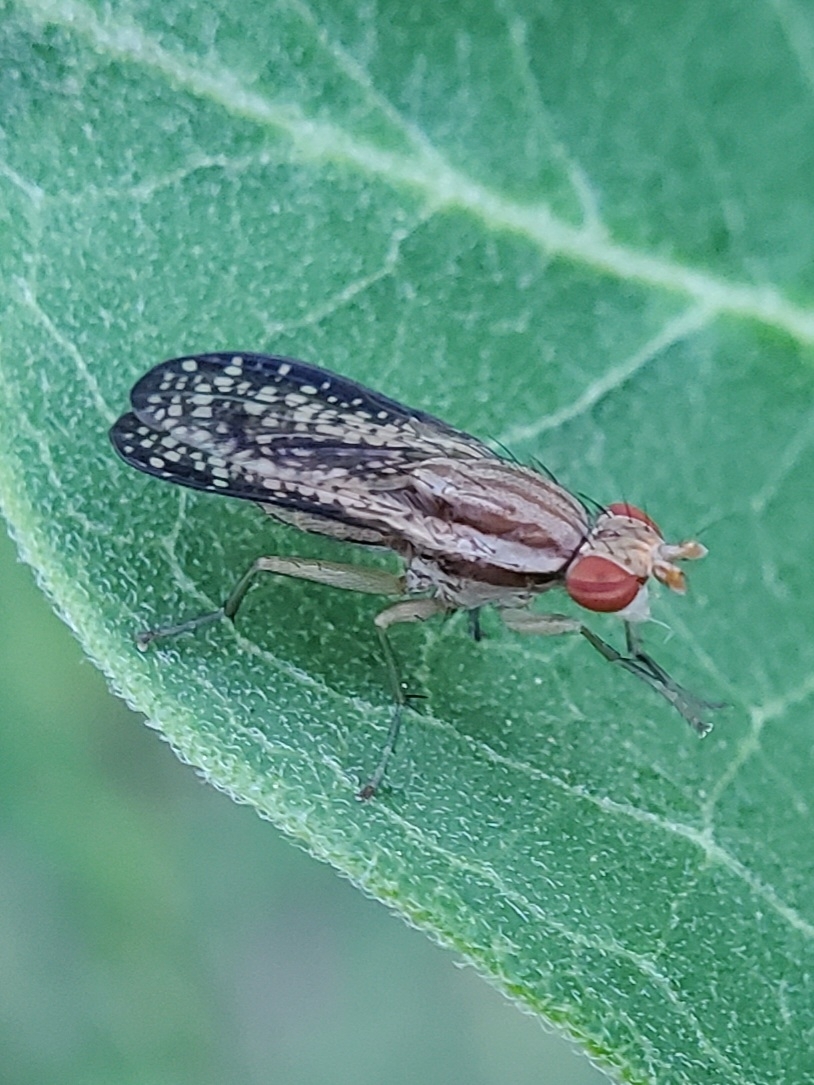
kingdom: Animalia
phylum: Arthropoda
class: Insecta
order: Diptera
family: Sciomyzidae
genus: Trypetoptera
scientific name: Trypetoptera canadensis
